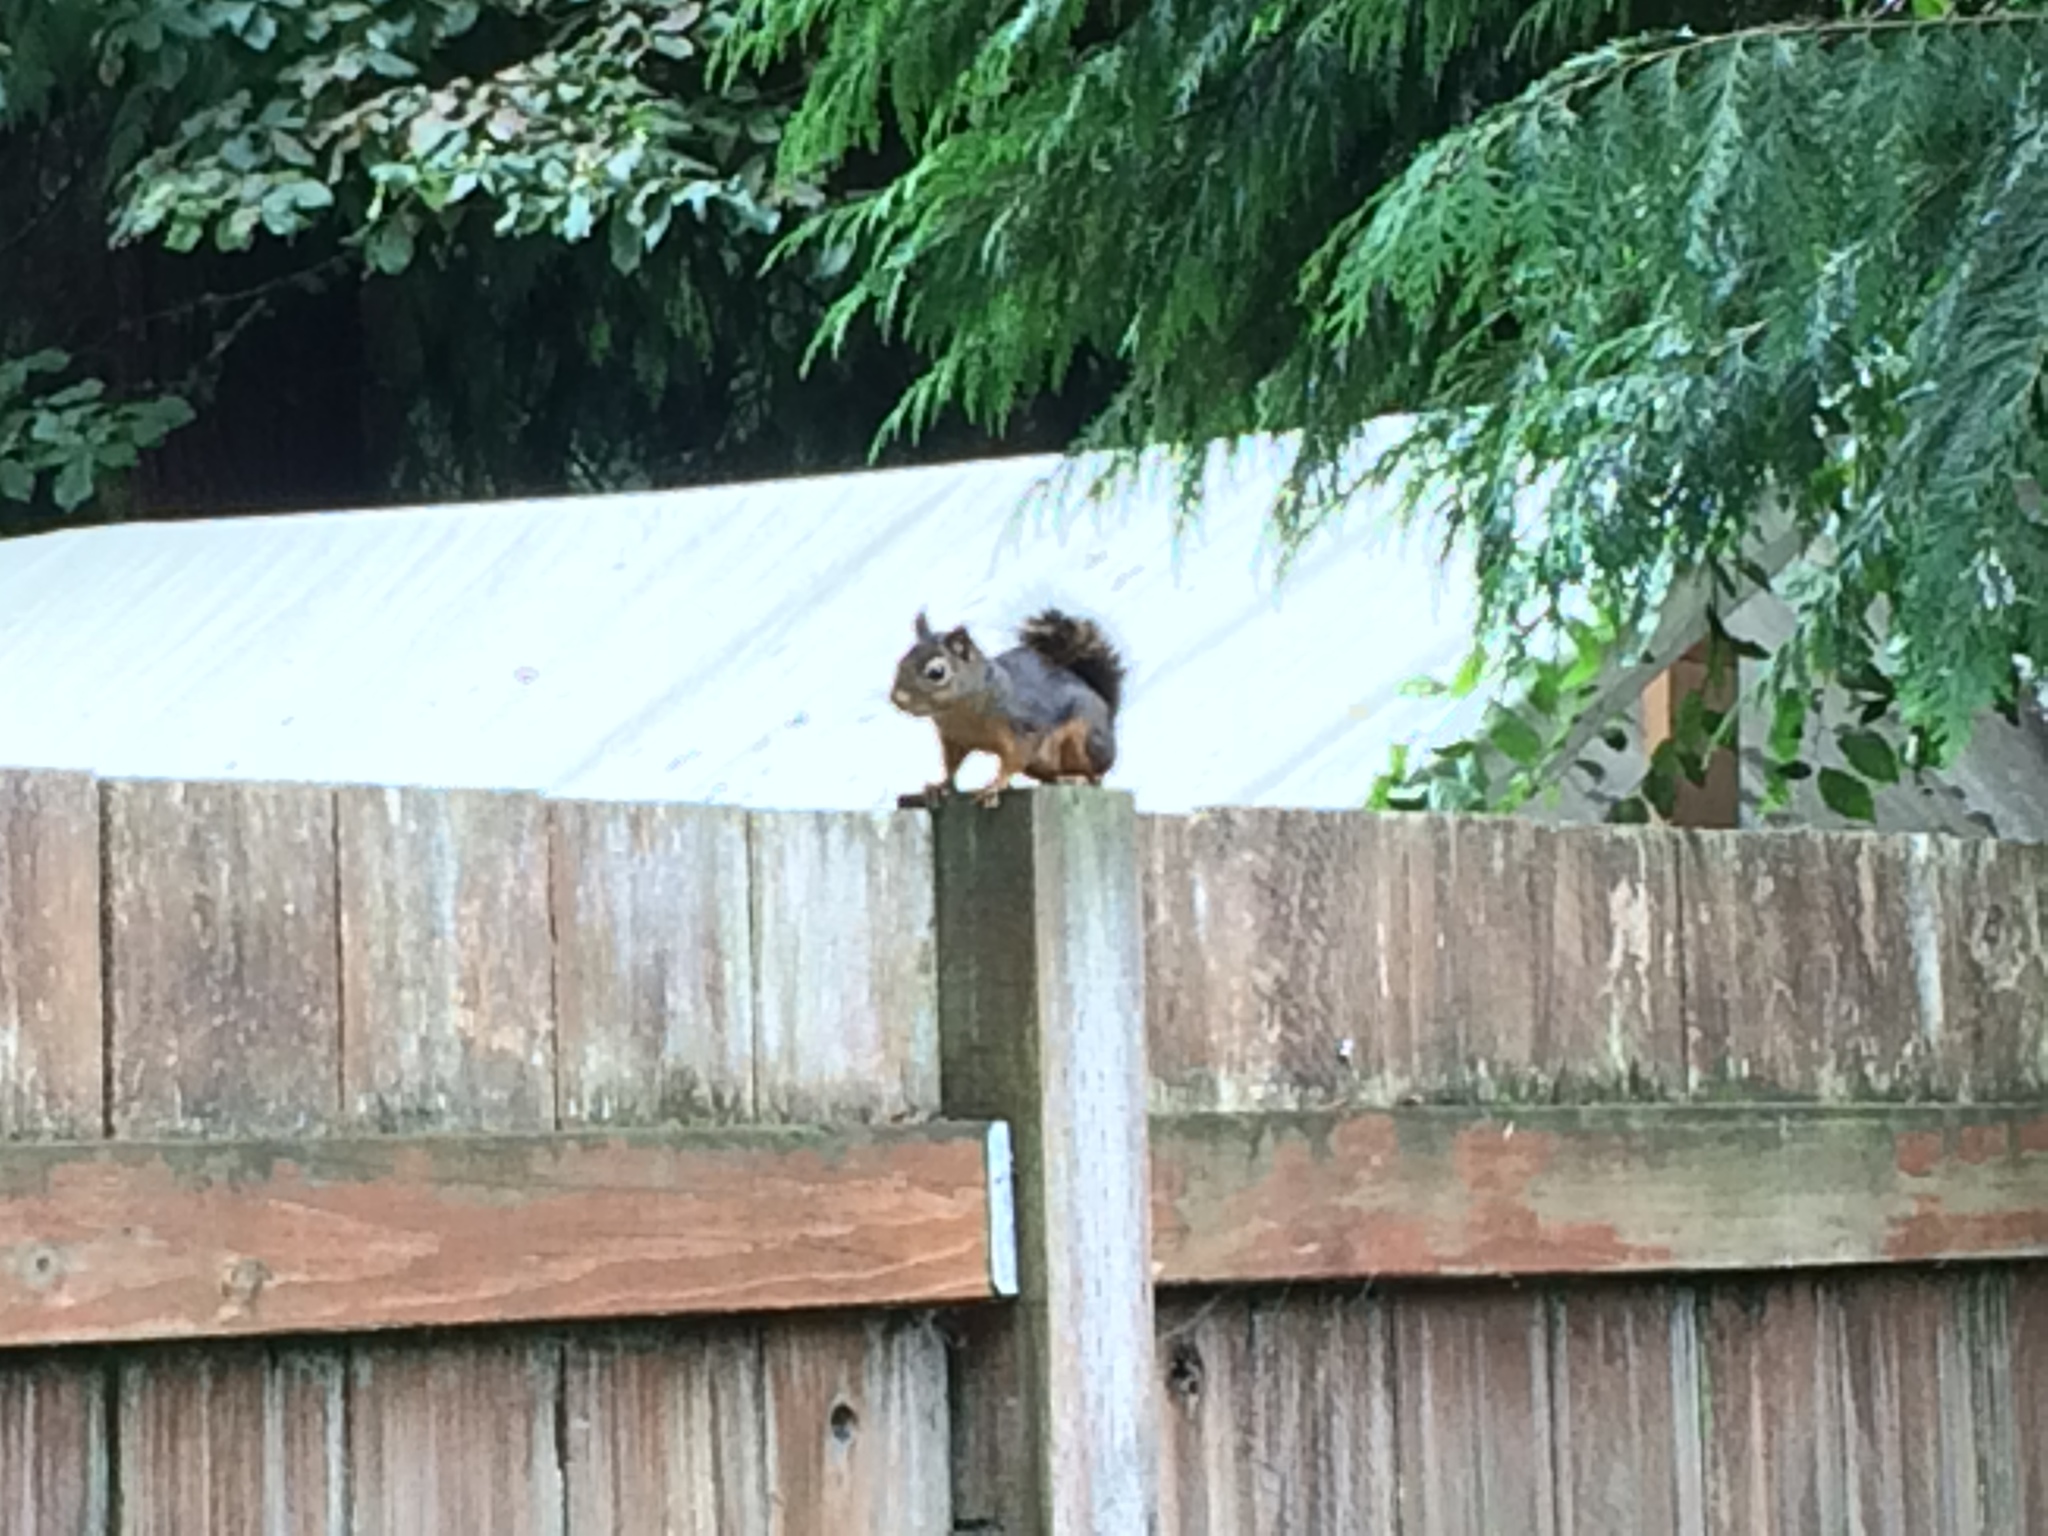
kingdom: Animalia
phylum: Chordata
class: Mammalia
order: Rodentia
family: Sciuridae
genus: Tamiasciurus
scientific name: Tamiasciurus douglasii
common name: Douglas's squirrel
